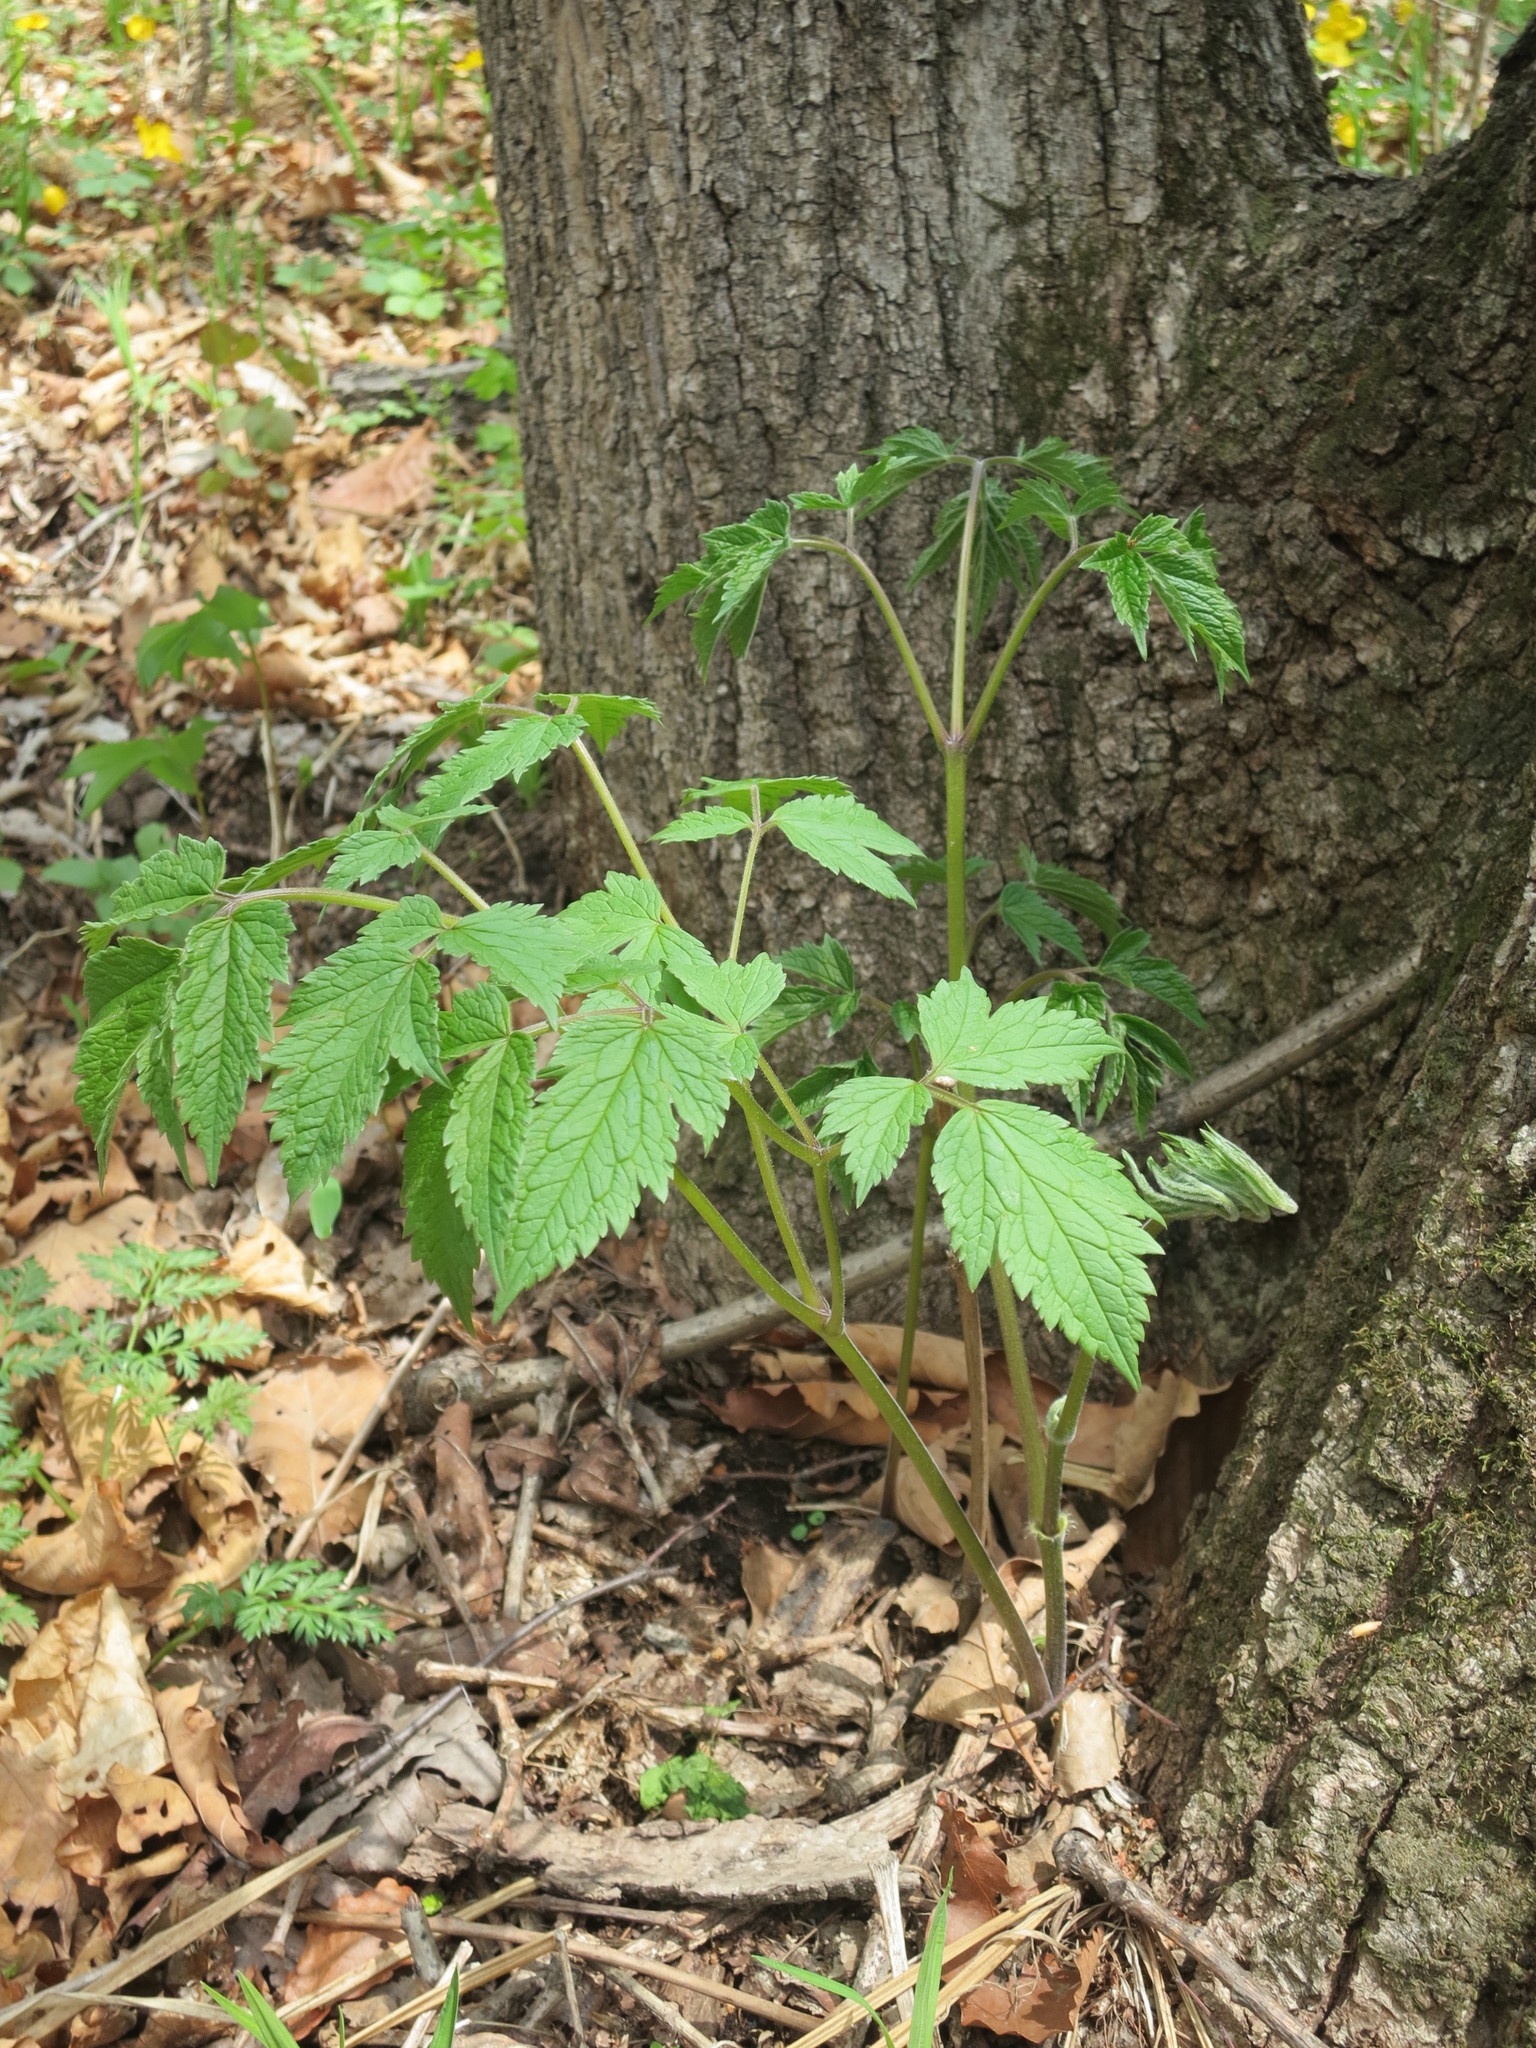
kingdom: Plantae
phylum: Tracheophyta
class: Magnoliopsida
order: Ranunculales
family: Ranunculaceae
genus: Actaea
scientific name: Actaea dahurica
